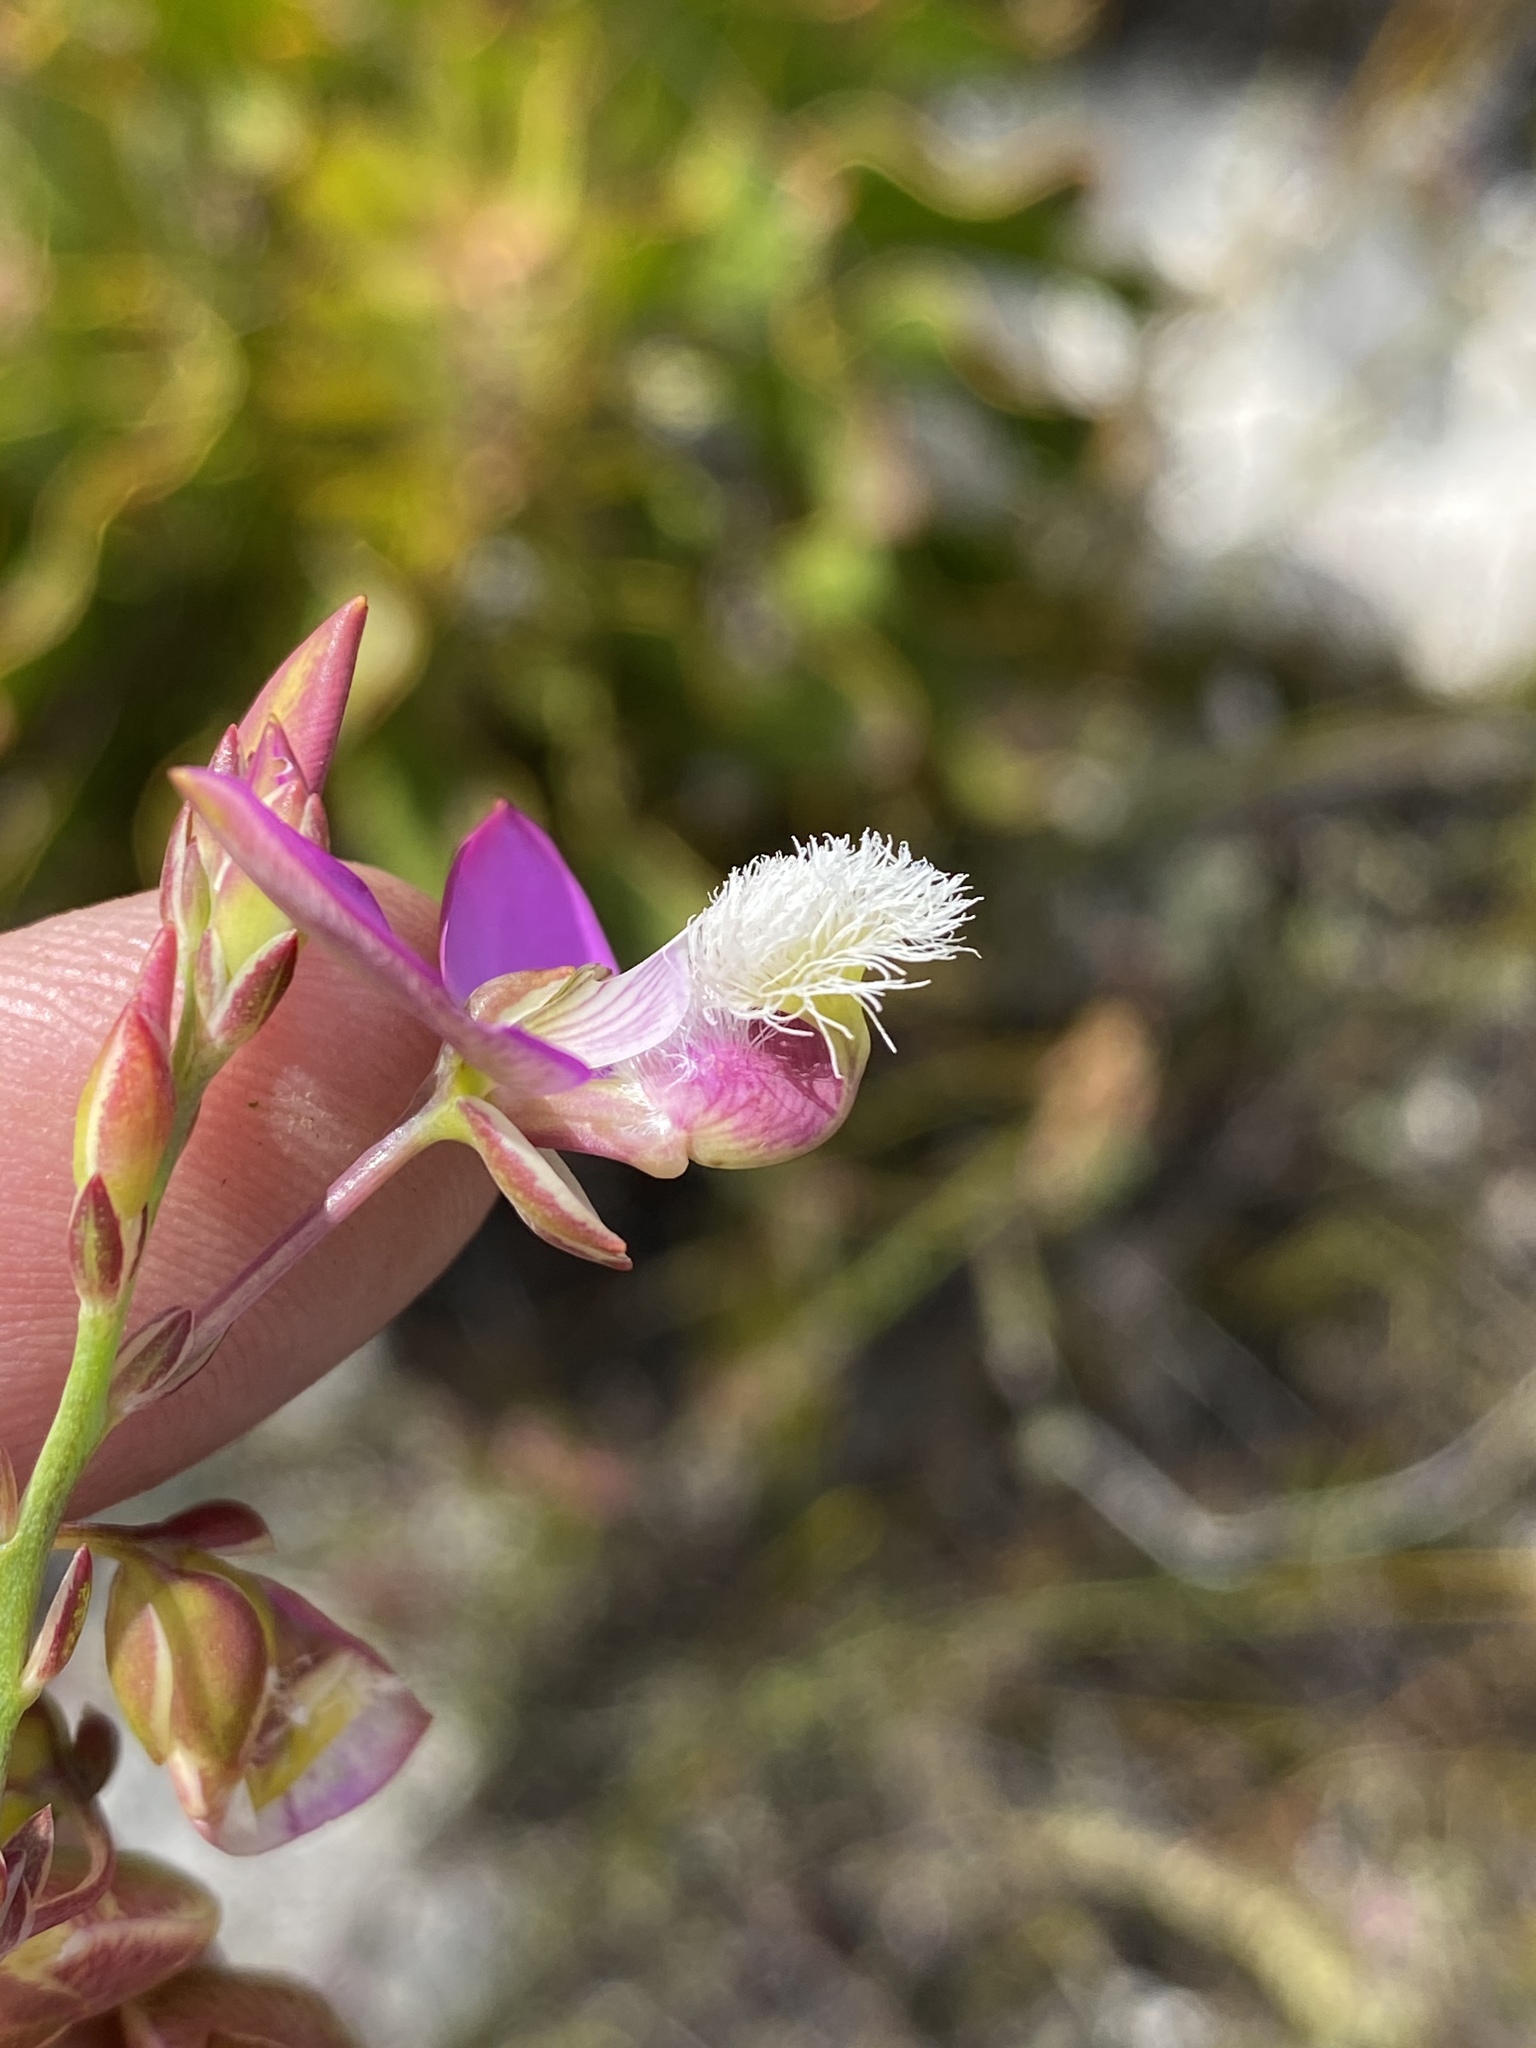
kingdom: Plantae
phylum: Tracheophyta
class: Magnoliopsida
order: Fabales
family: Polygalaceae
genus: Polygala
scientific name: Polygala bracteolata
